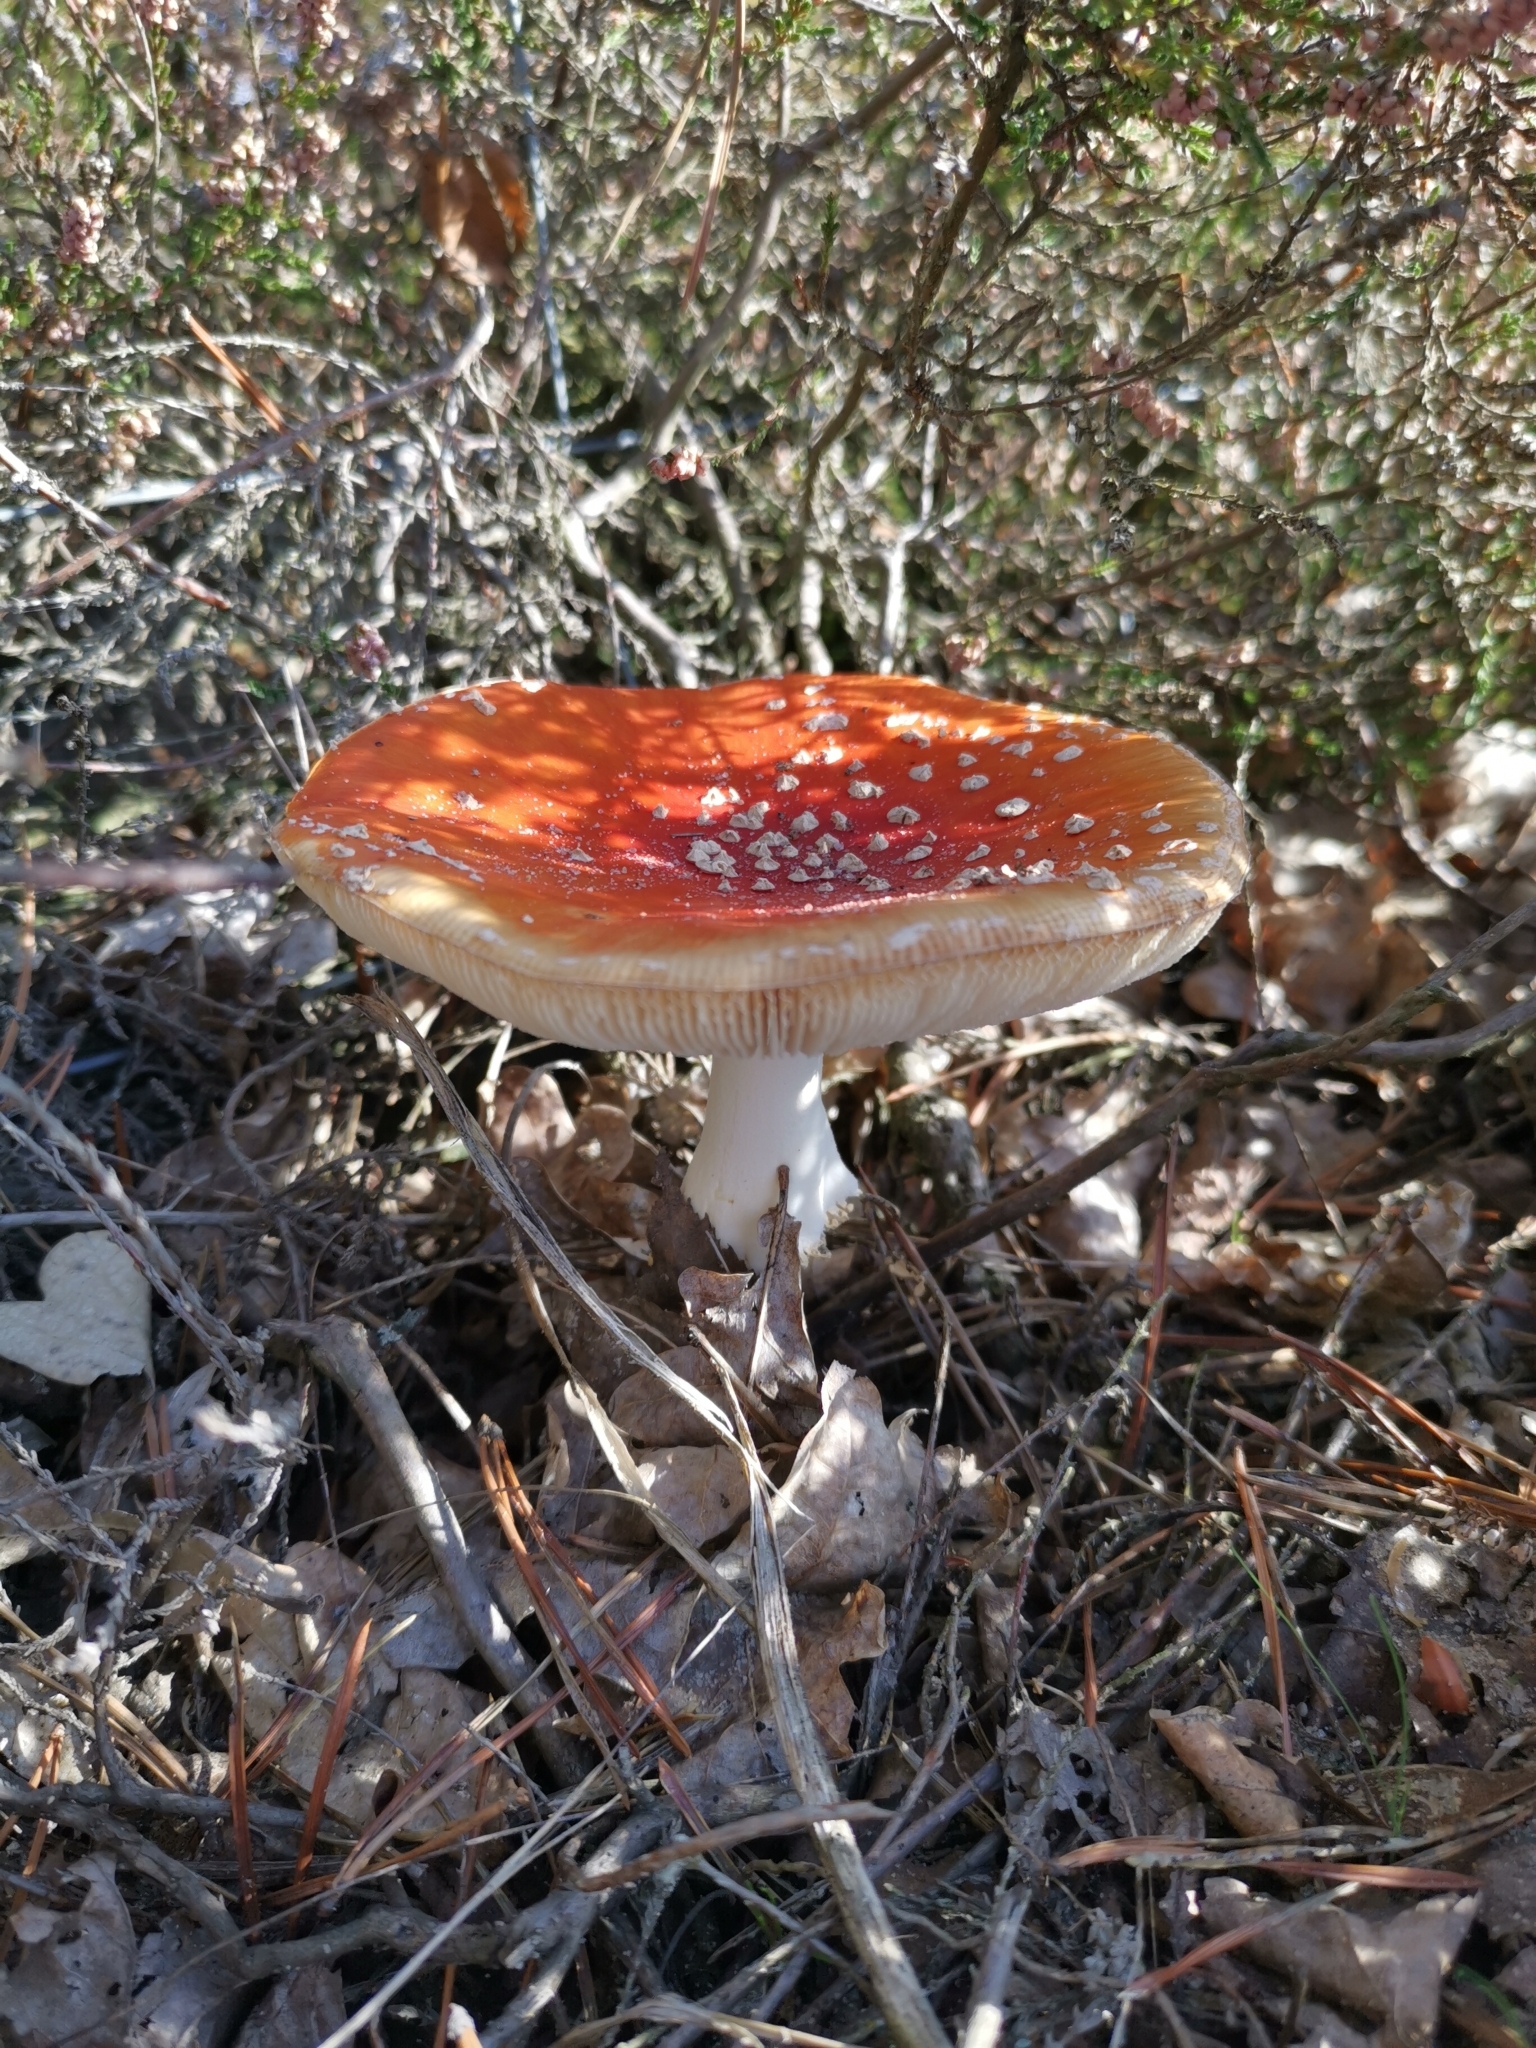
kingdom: Fungi
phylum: Basidiomycota
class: Agaricomycetes
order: Agaricales
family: Amanitaceae
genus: Amanita
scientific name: Amanita muscaria
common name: Fly agaric
